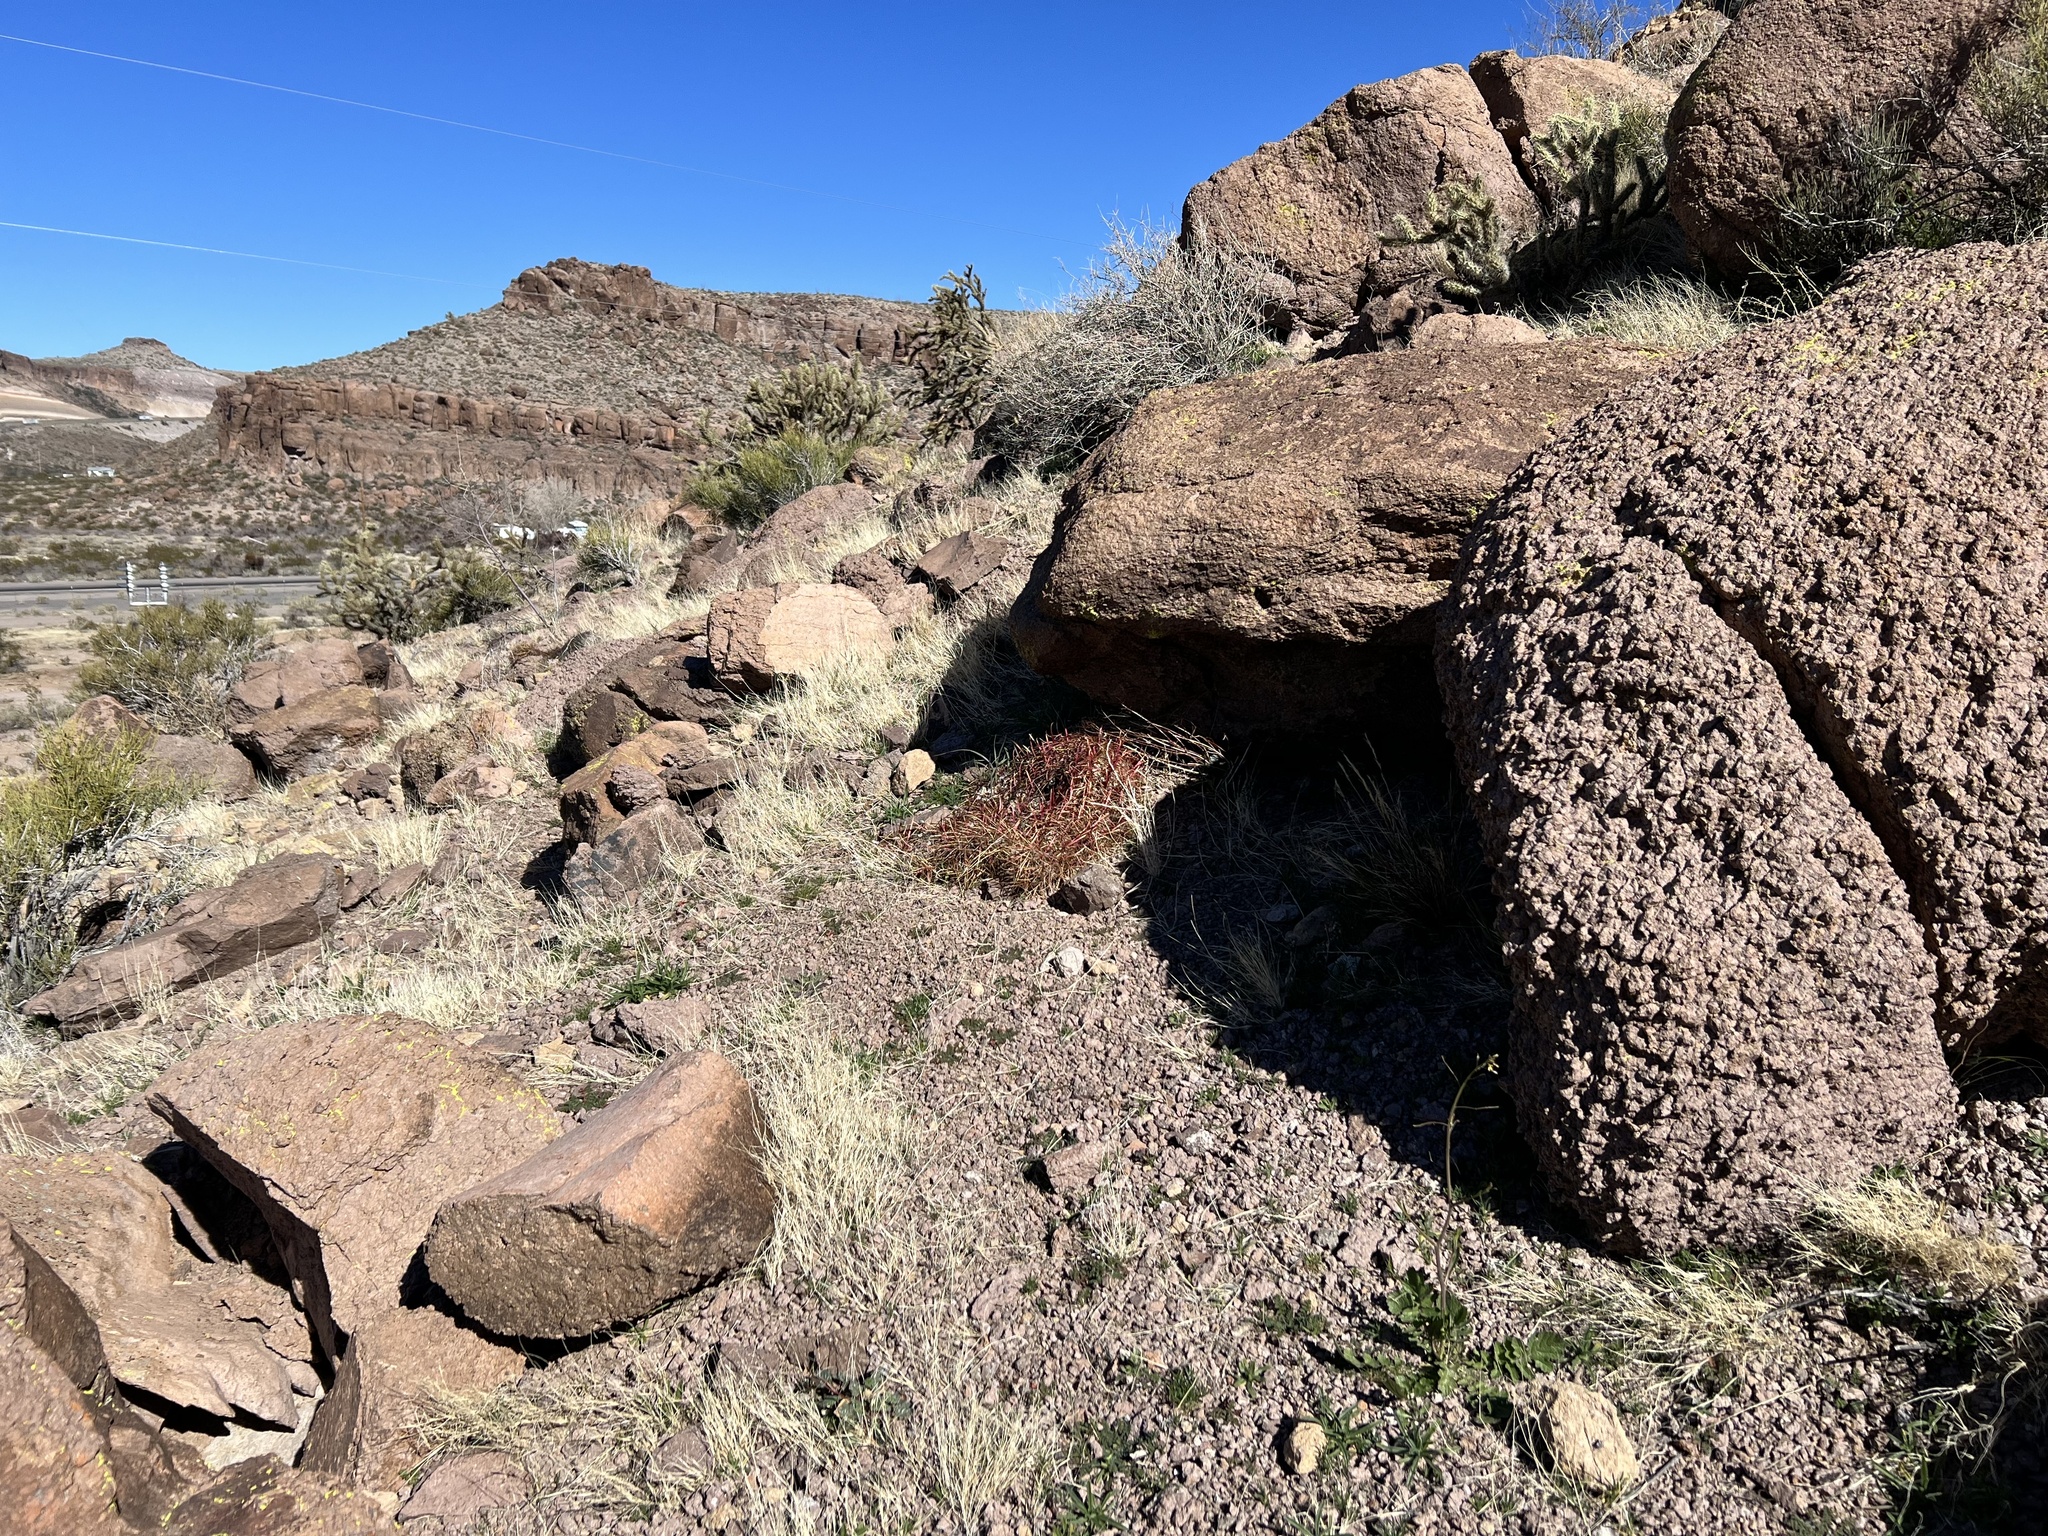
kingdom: Plantae
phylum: Tracheophyta
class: Magnoliopsida
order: Caryophyllales
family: Cactaceae
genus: Ferocactus
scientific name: Ferocactus cylindraceus
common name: California barrel cactus
